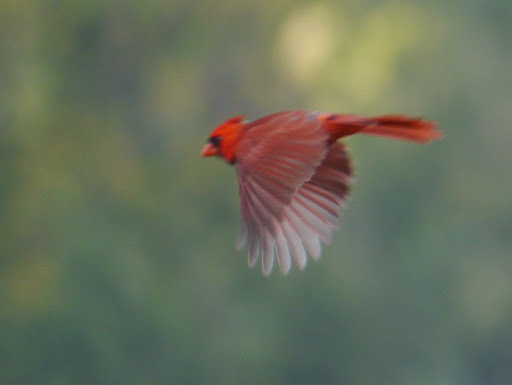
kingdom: Animalia
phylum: Chordata
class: Aves
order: Passeriformes
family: Cardinalidae
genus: Cardinalis
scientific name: Cardinalis cardinalis
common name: Northern cardinal
